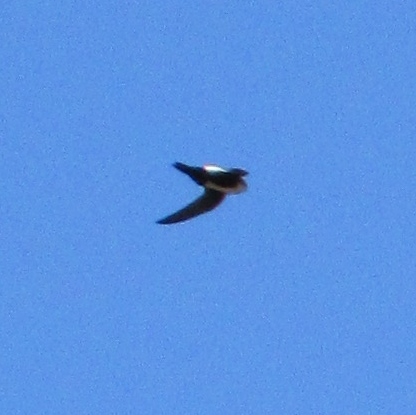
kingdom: Animalia
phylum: Chordata
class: Aves
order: Apodiformes
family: Apodidae
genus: Aeronautes
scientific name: Aeronautes saxatalis
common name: White-throated swift
